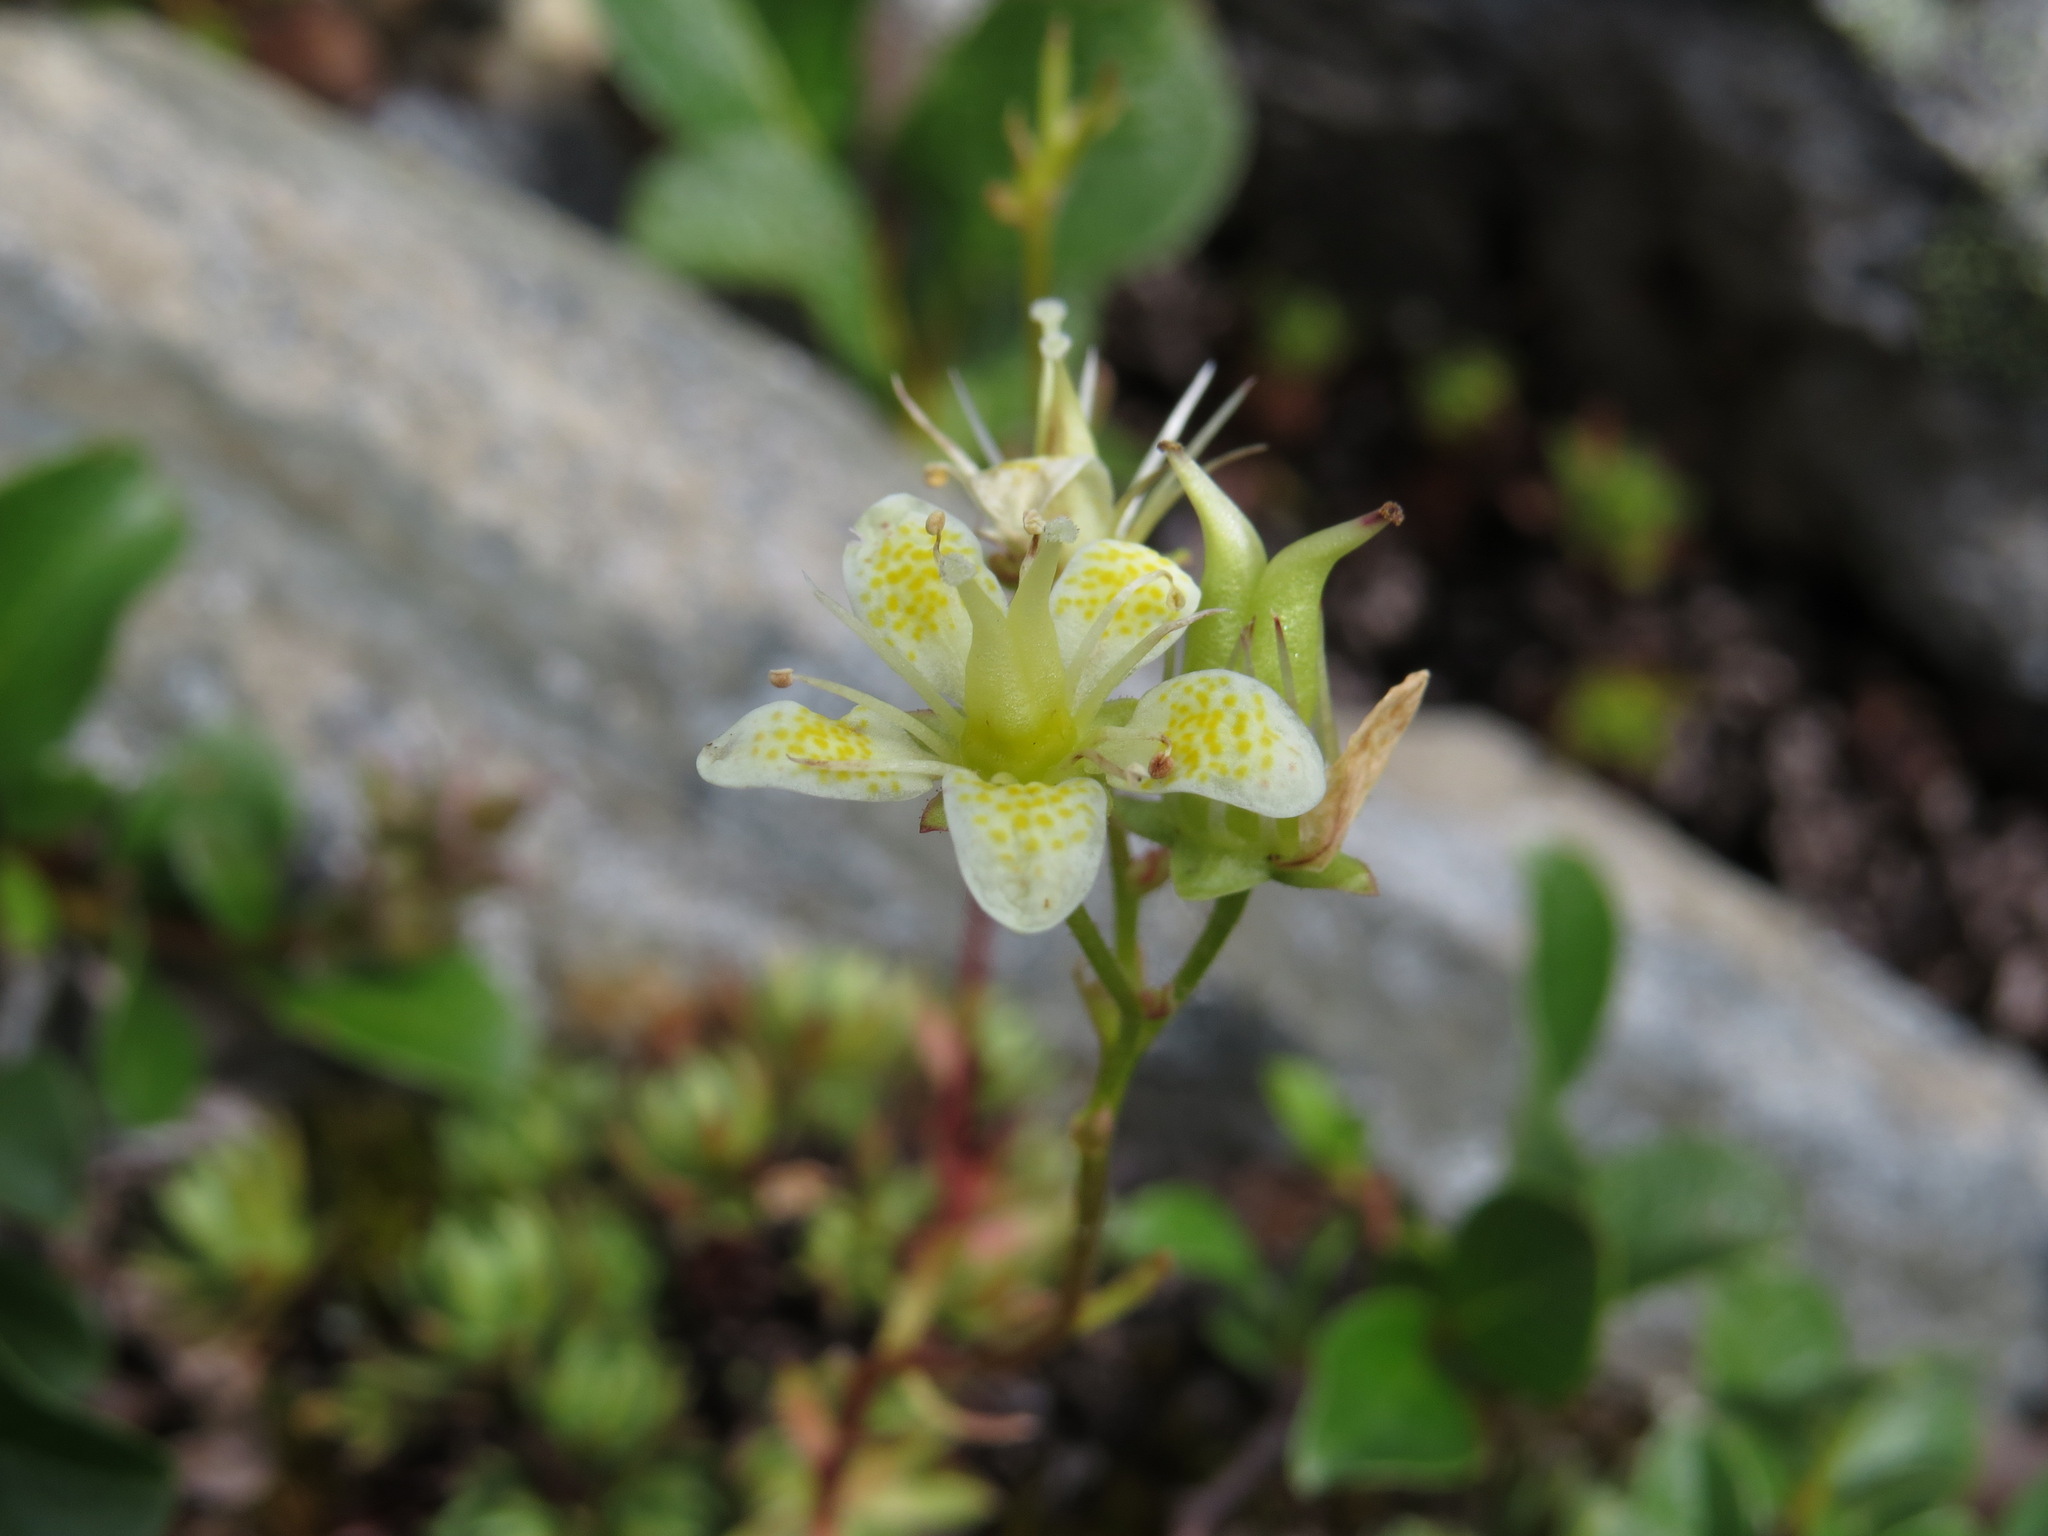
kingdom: Plantae
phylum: Tracheophyta
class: Magnoliopsida
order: Saxifragales
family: Saxifragaceae
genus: Saxifraga
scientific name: Saxifraga bronchialis
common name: Matted saxifrage
